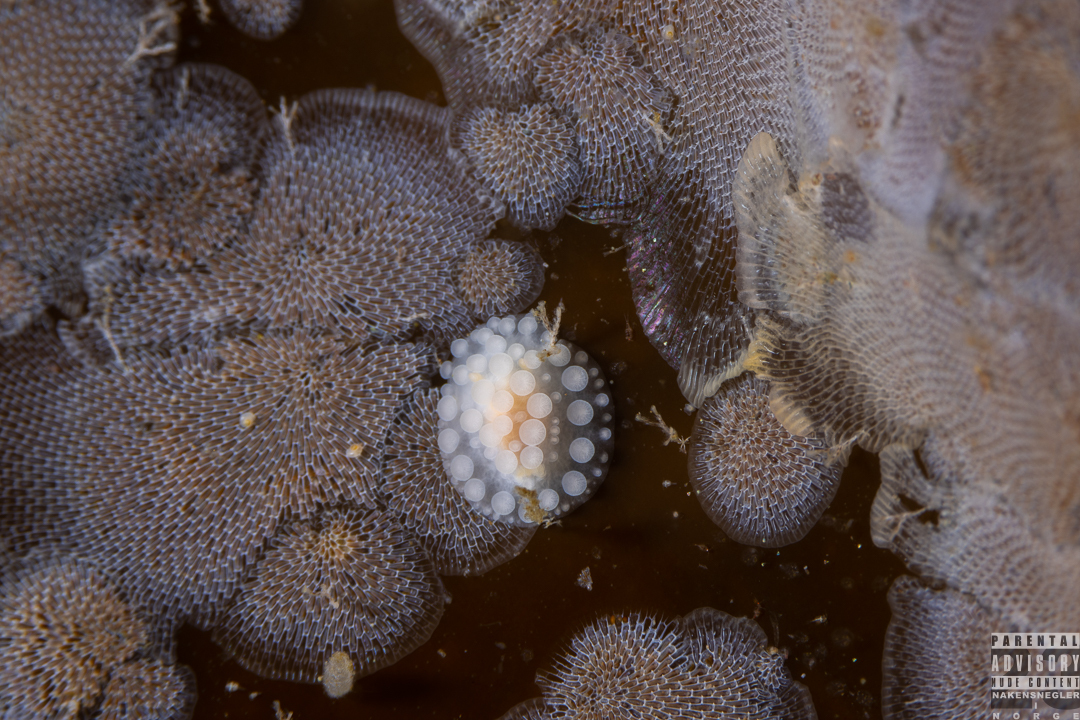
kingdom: Animalia
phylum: Mollusca
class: Gastropoda
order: Nudibranchia
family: Onchidorididae
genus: Adalaria
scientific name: Adalaria loveni
